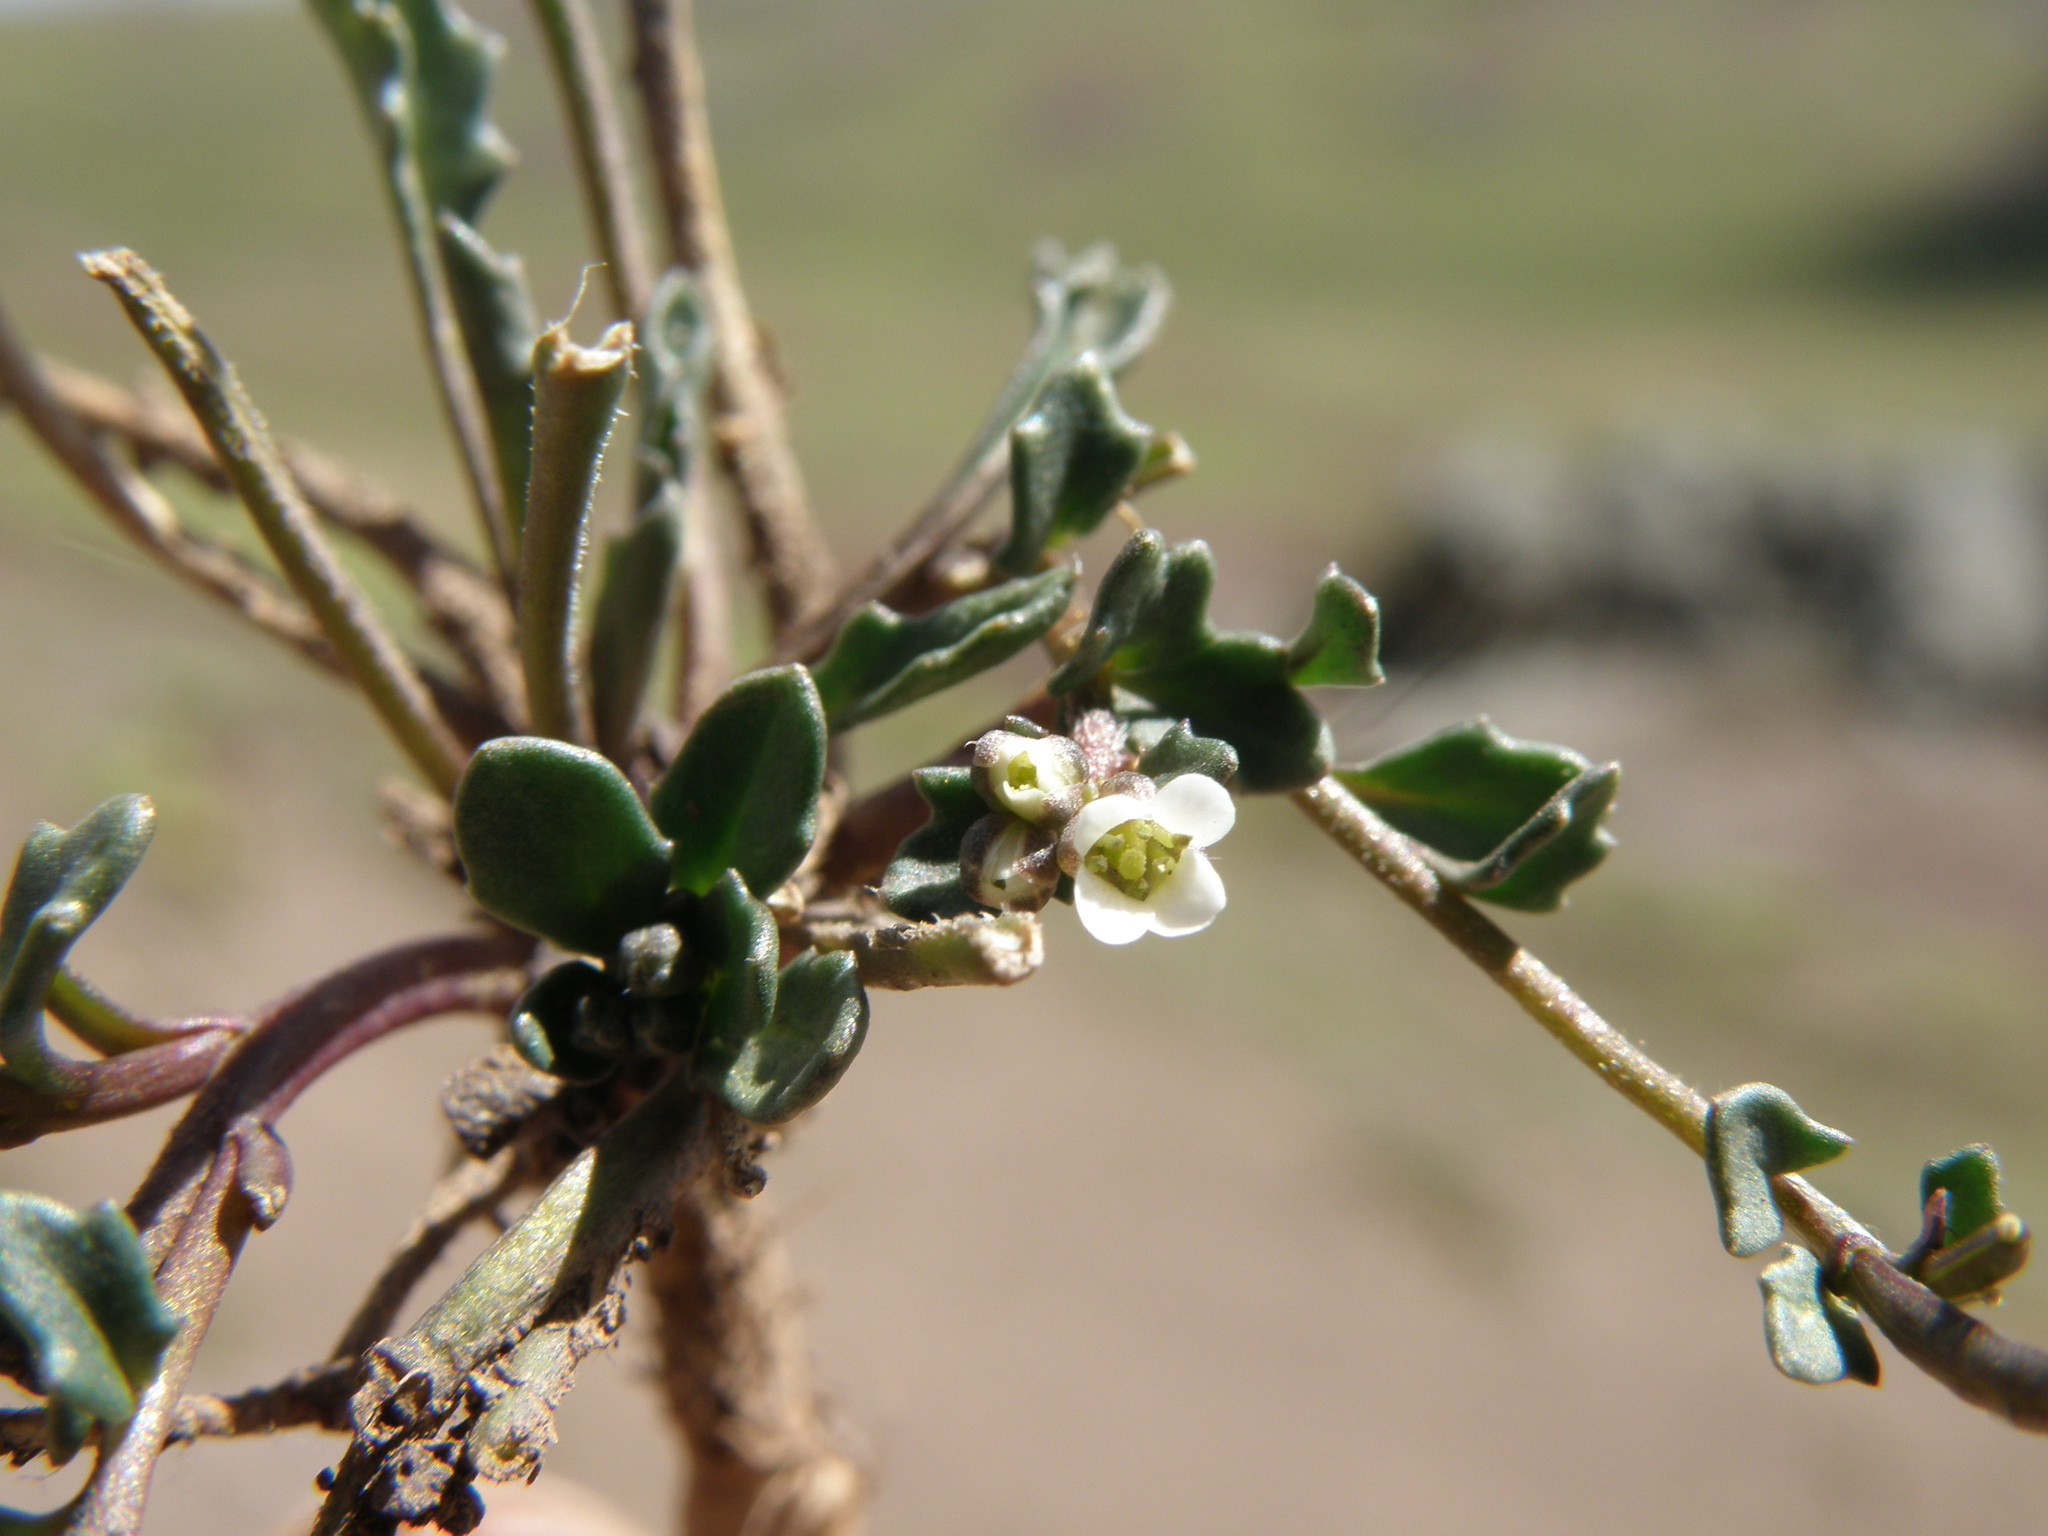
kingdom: Plantae
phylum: Tracheophyta
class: Magnoliopsida
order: Brassicales
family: Brassicaceae
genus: Weberbauera
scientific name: Weberbauera spathulifolia
